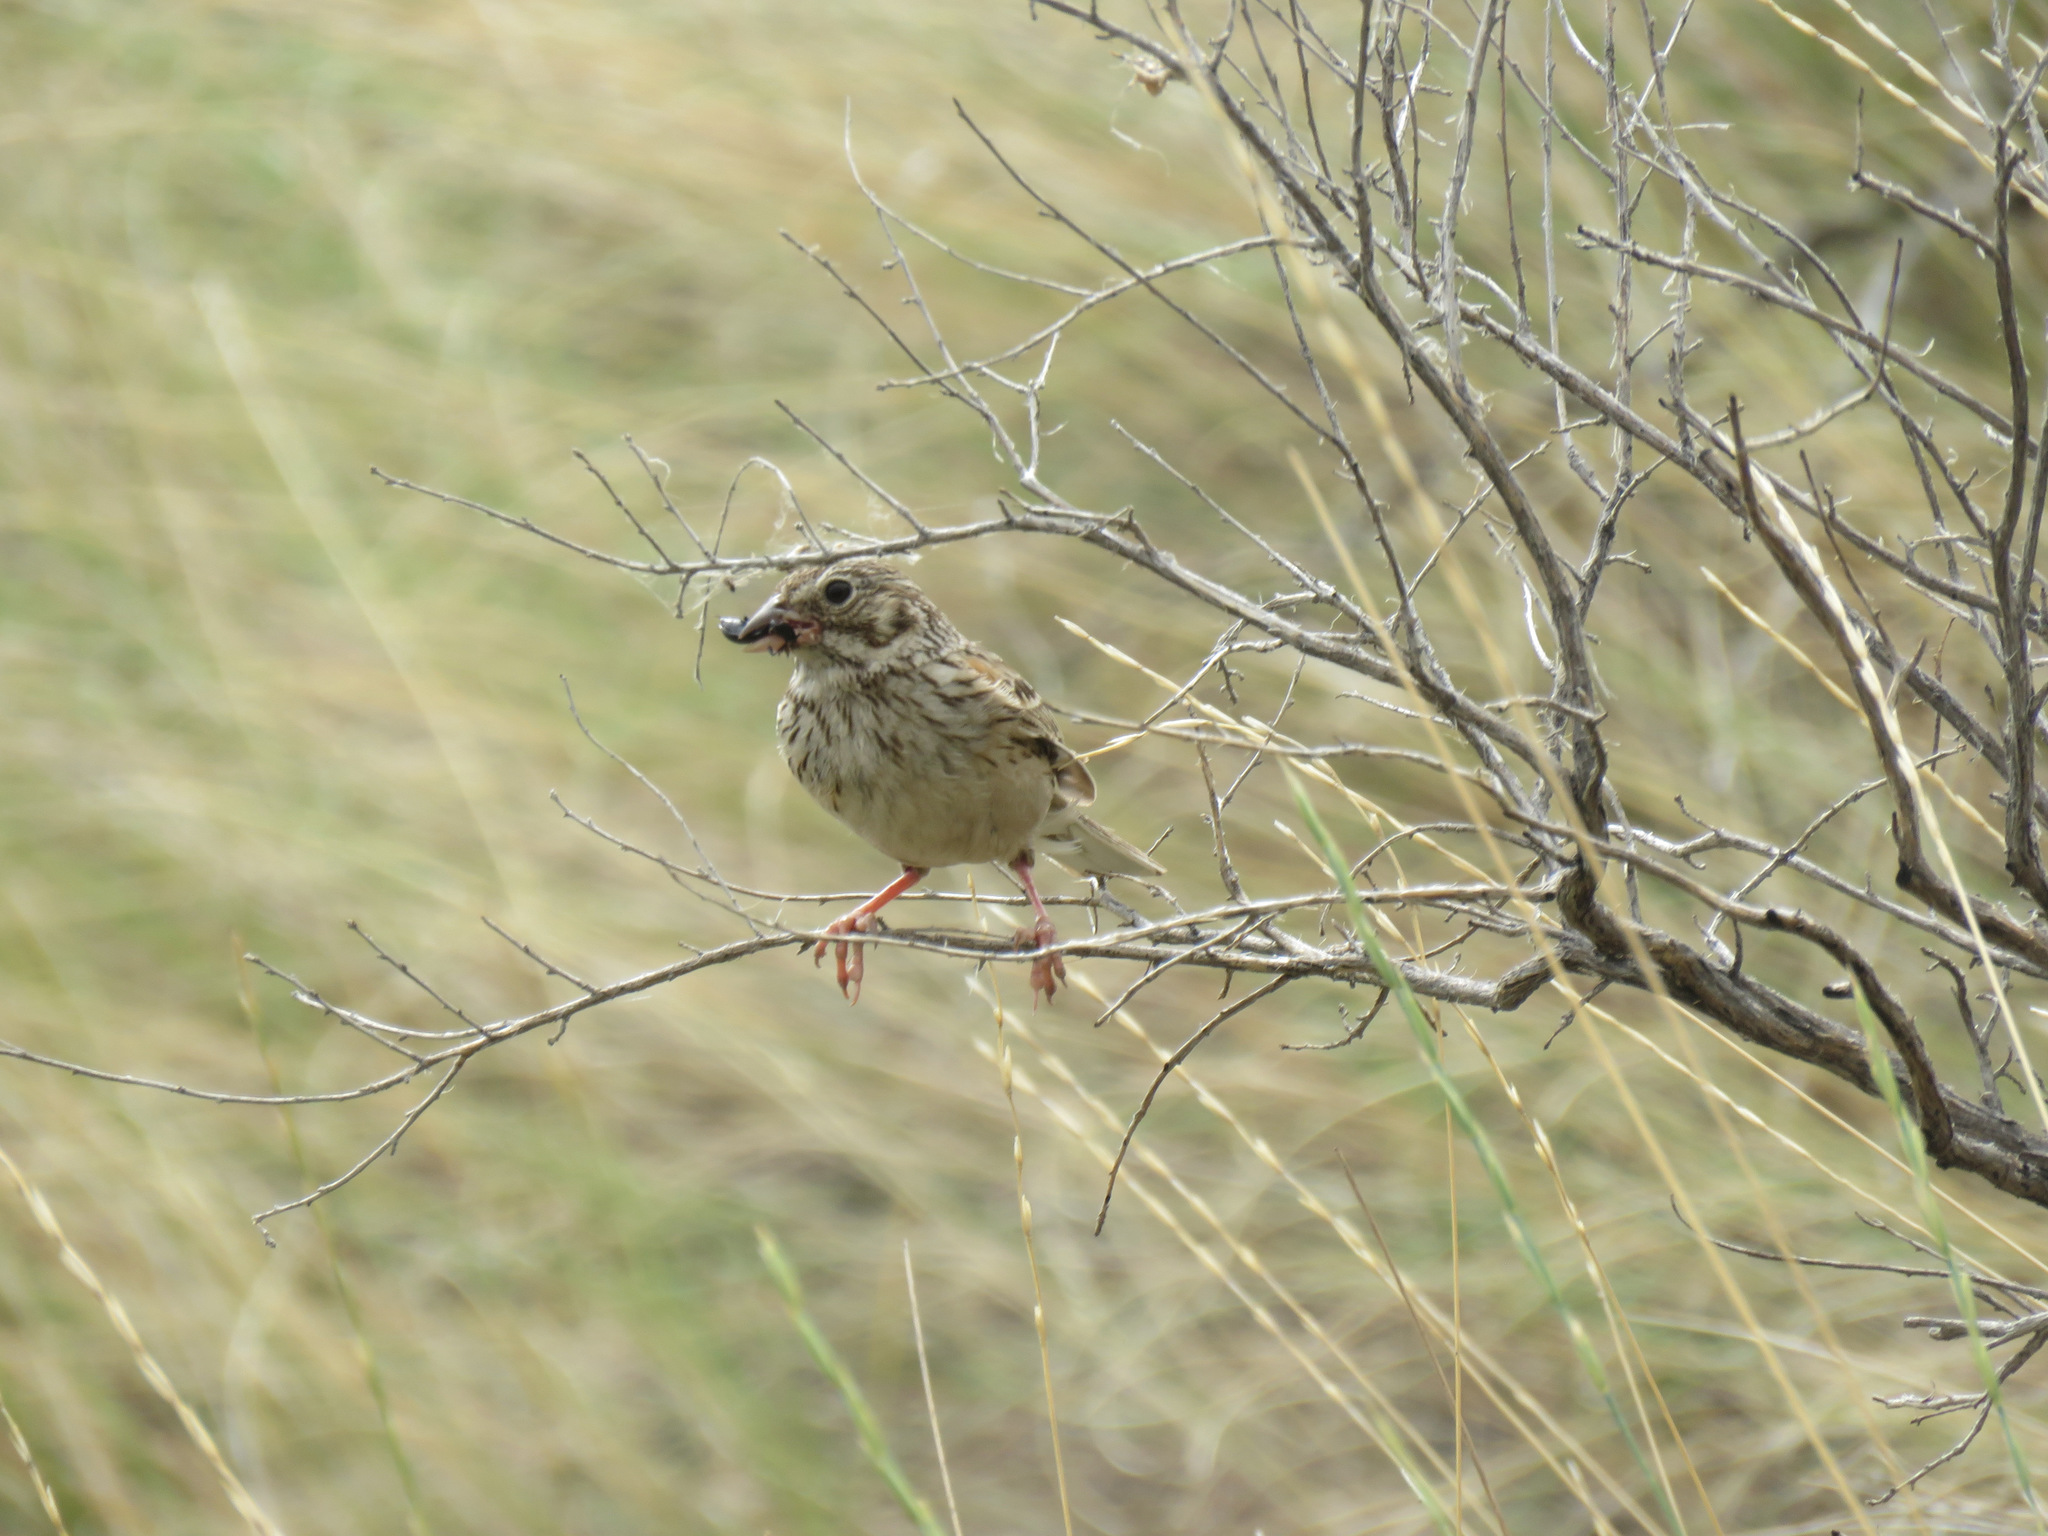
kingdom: Animalia
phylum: Chordata
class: Aves
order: Passeriformes
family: Passerellidae
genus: Pooecetes
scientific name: Pooecetes gramineus
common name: Vesper sparrow
